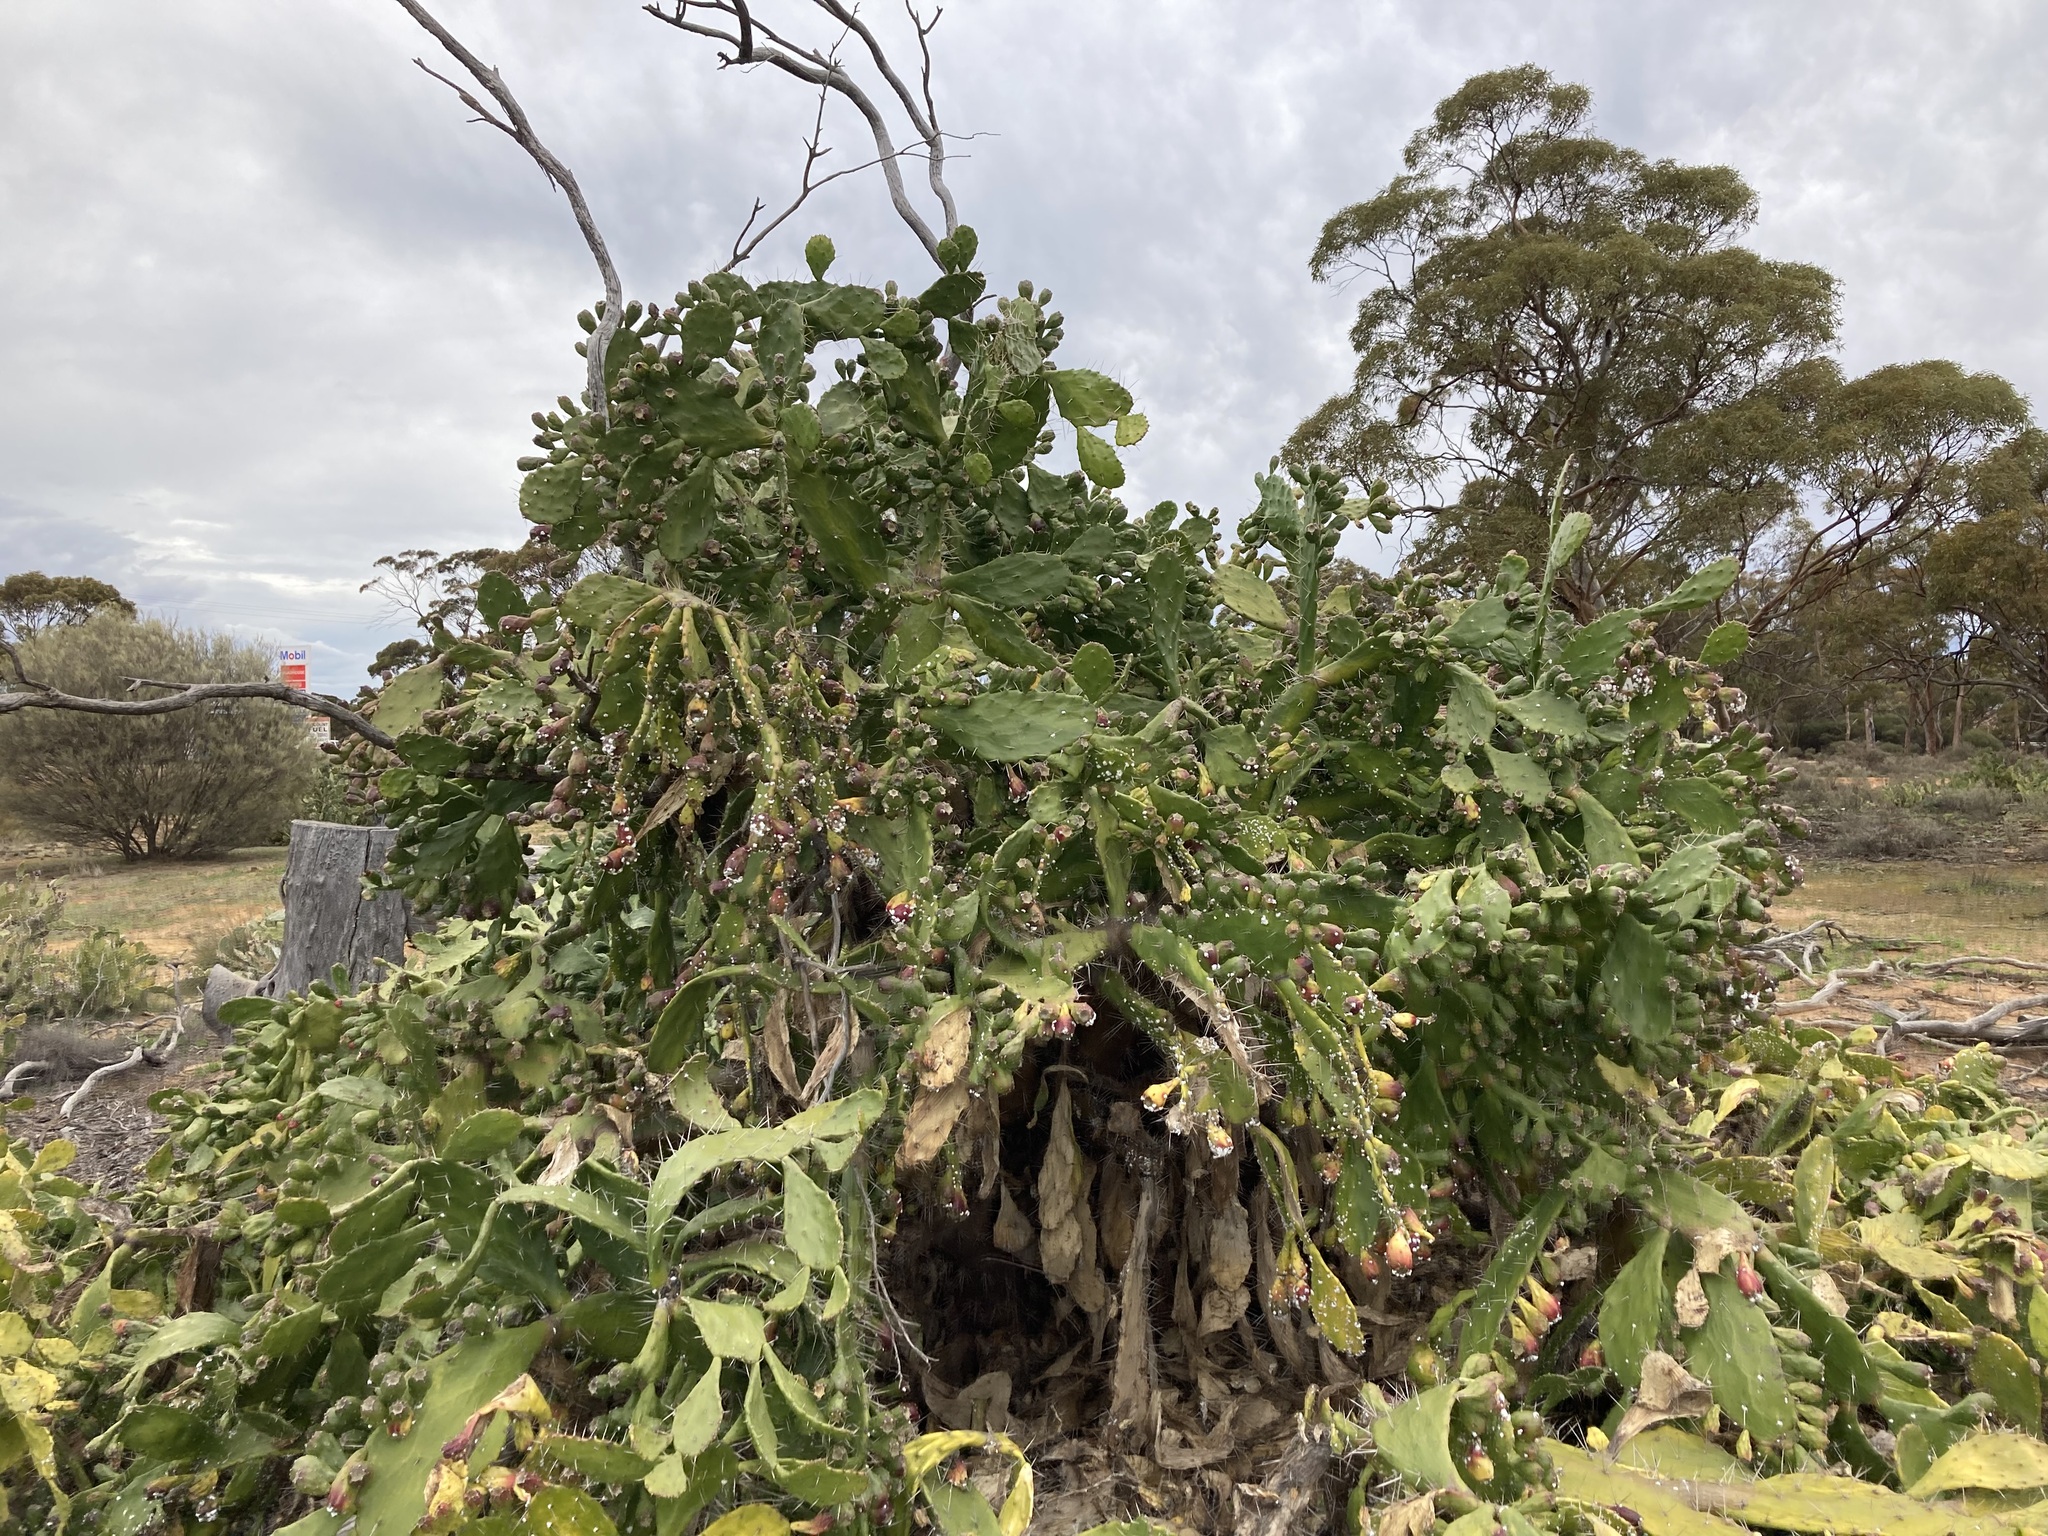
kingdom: Plantae
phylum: Tracheophyta
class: Magnoliopsida
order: Caryophyllales
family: Cactaceae
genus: Opuntia
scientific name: Opuntia monacantha
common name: Common pricklypear
